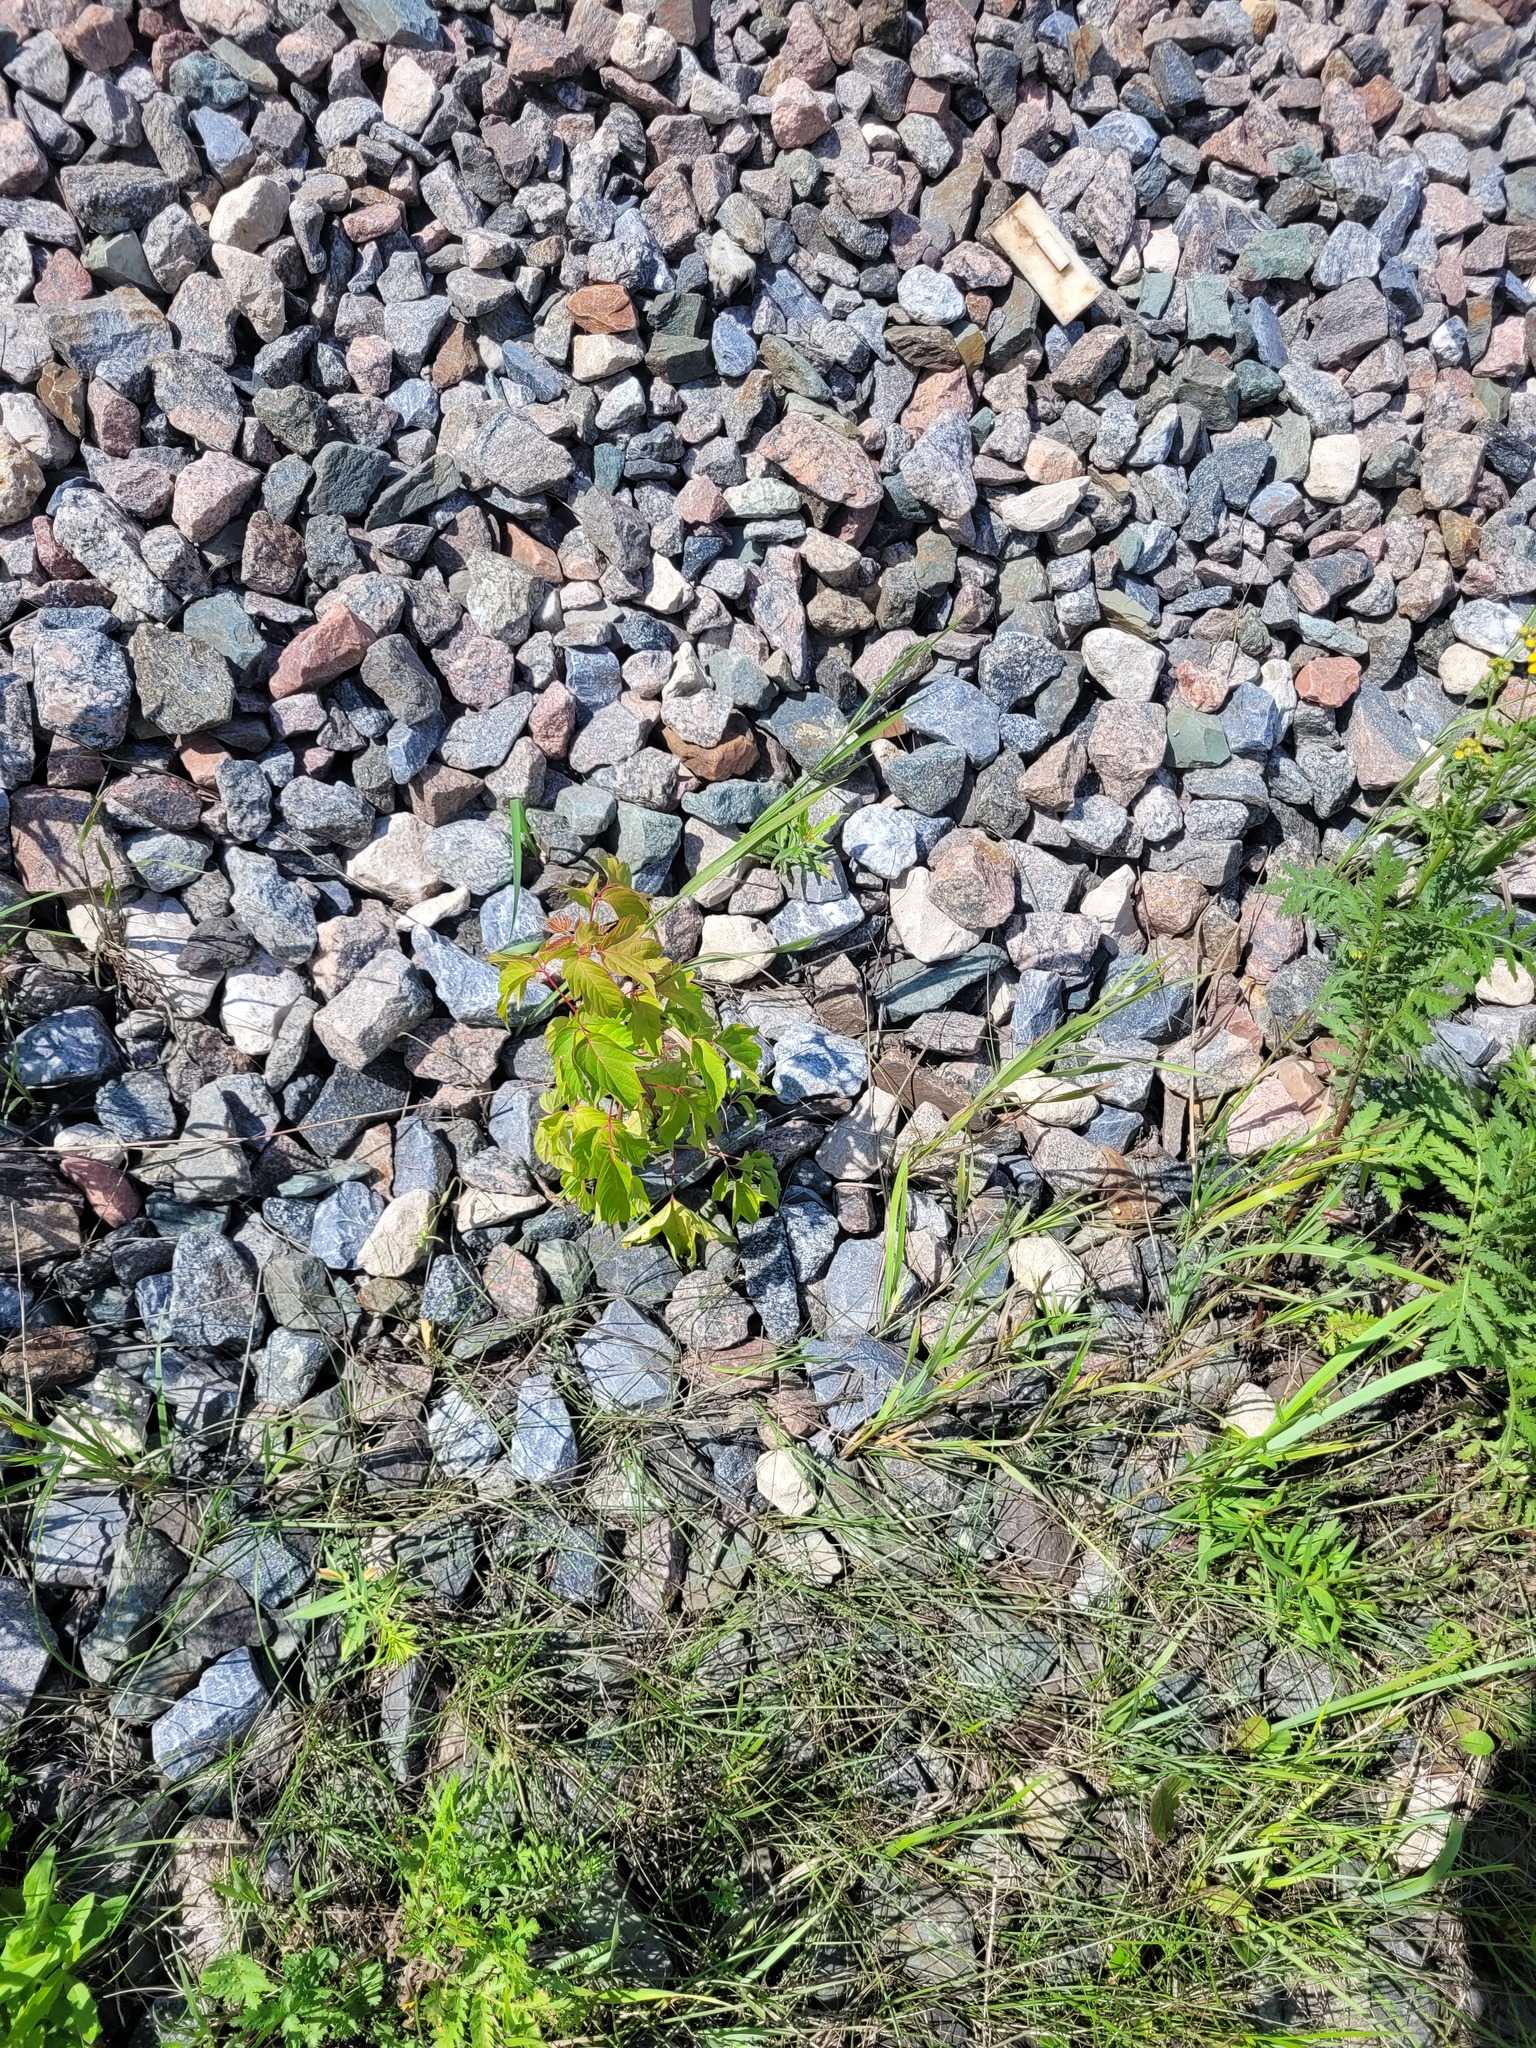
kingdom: Plantae
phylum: Tracheophyta
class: Magnoliopsida
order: Sapindales
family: Sapindaceae
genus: Acer
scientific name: Acer negundo
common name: Ashleaf maple
